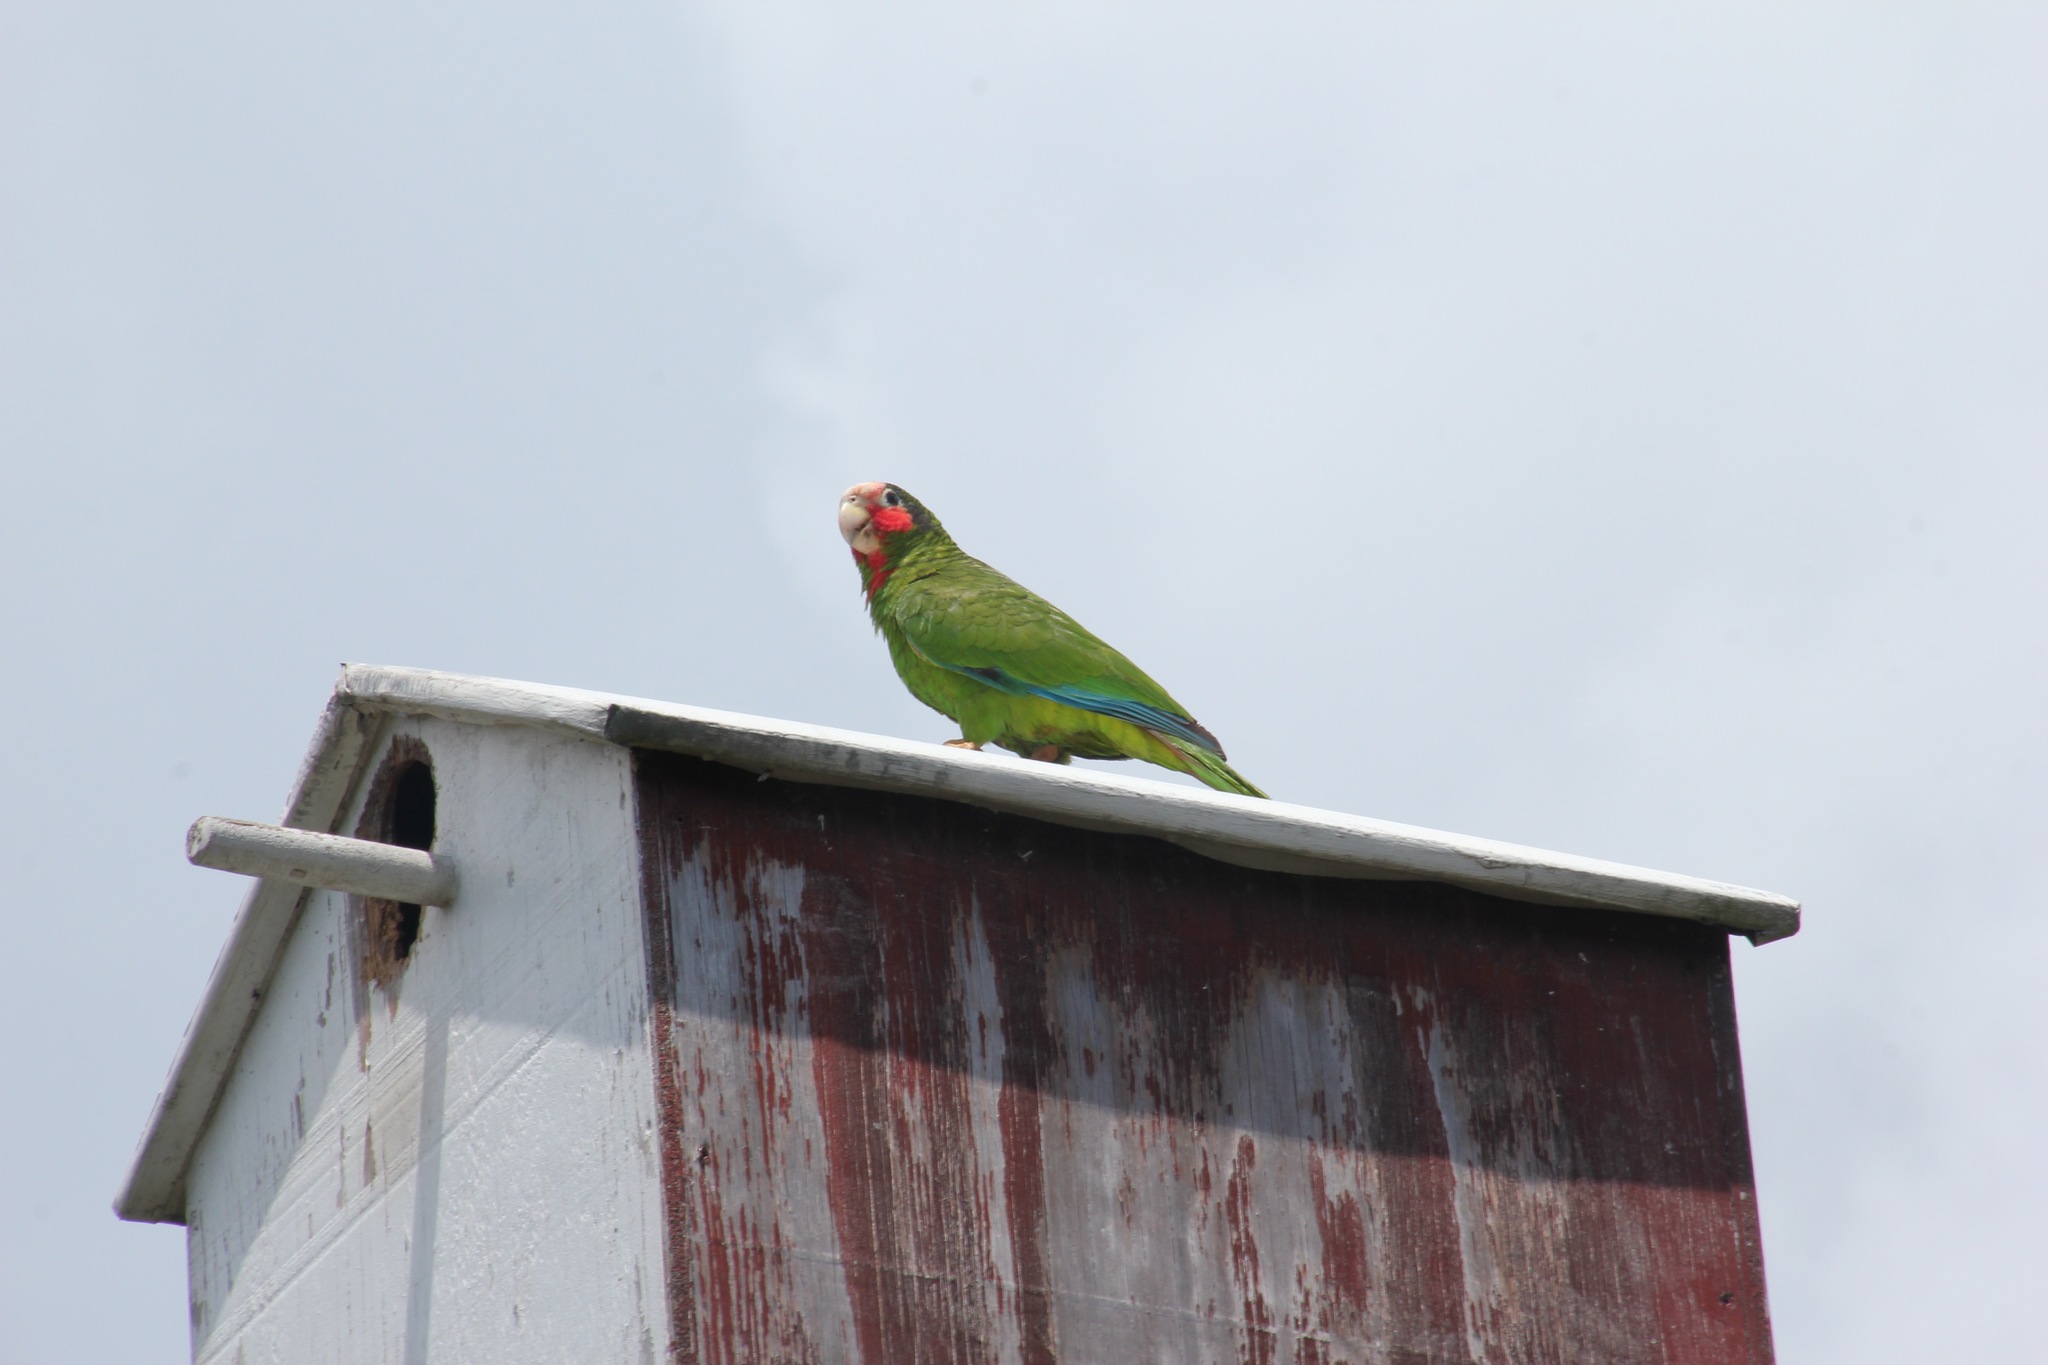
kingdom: Animalia
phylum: Chordata
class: Aves
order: Psittaciformes
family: Psittacidae
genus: Amazona
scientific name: Amazona leucocephala
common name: Cuban amazon
